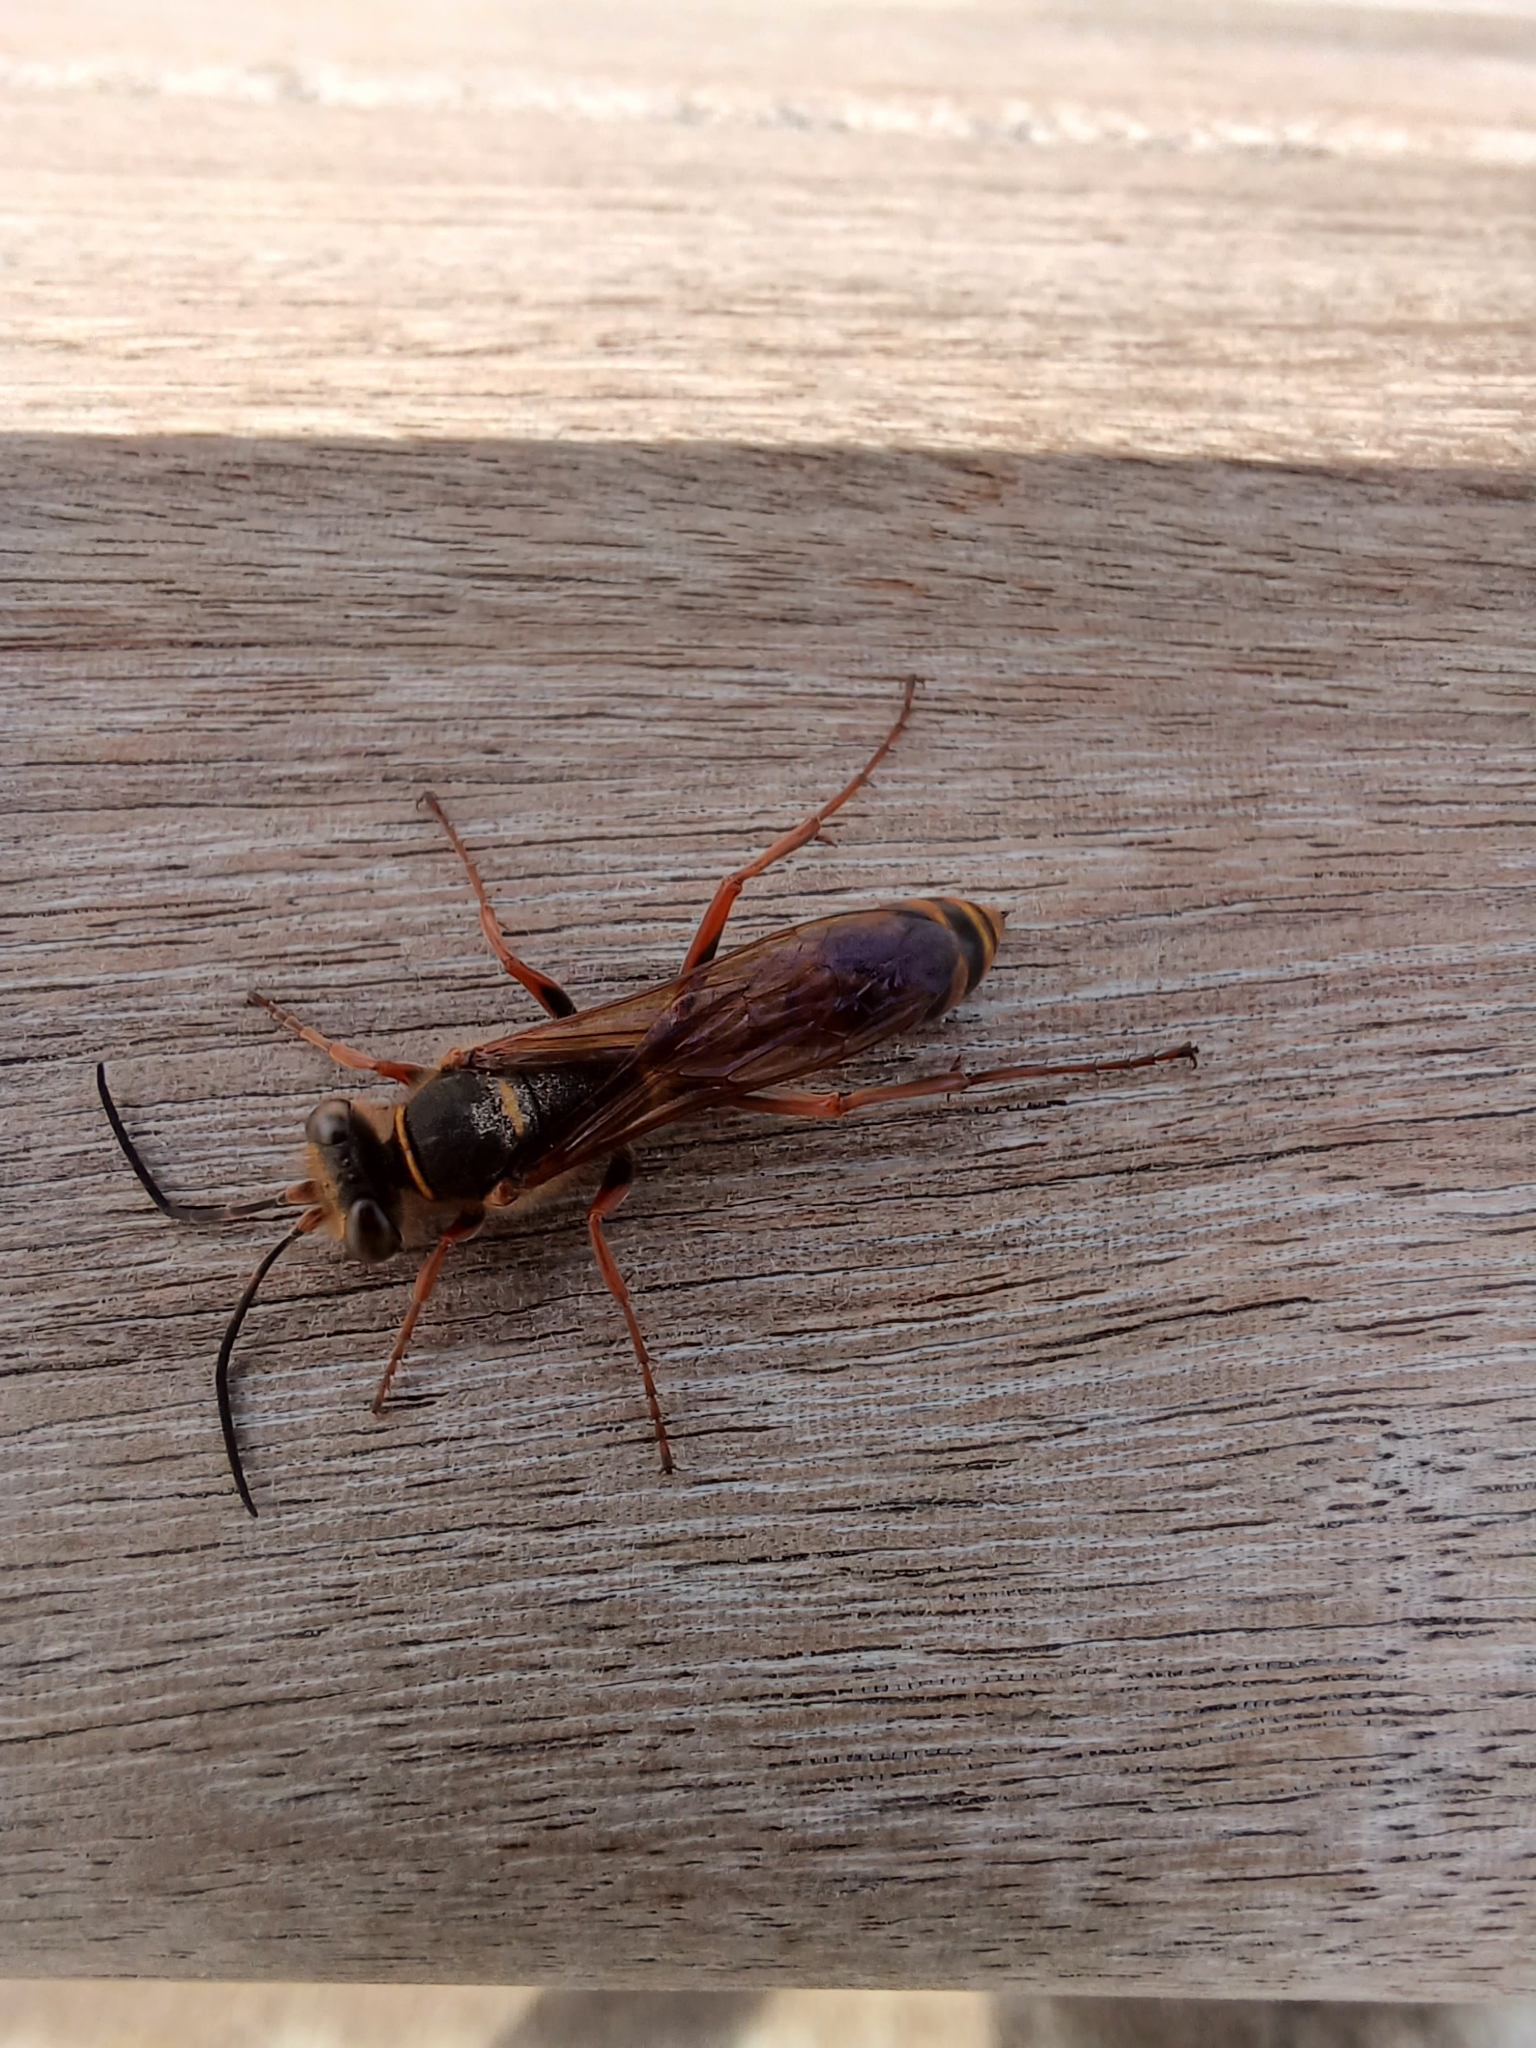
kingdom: Animalia
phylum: Arthropoda
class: Insecta
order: Hymenoptera
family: Sphecidae
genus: Sceliphron
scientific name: Sceliphron curvatum
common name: Pèlopèe
